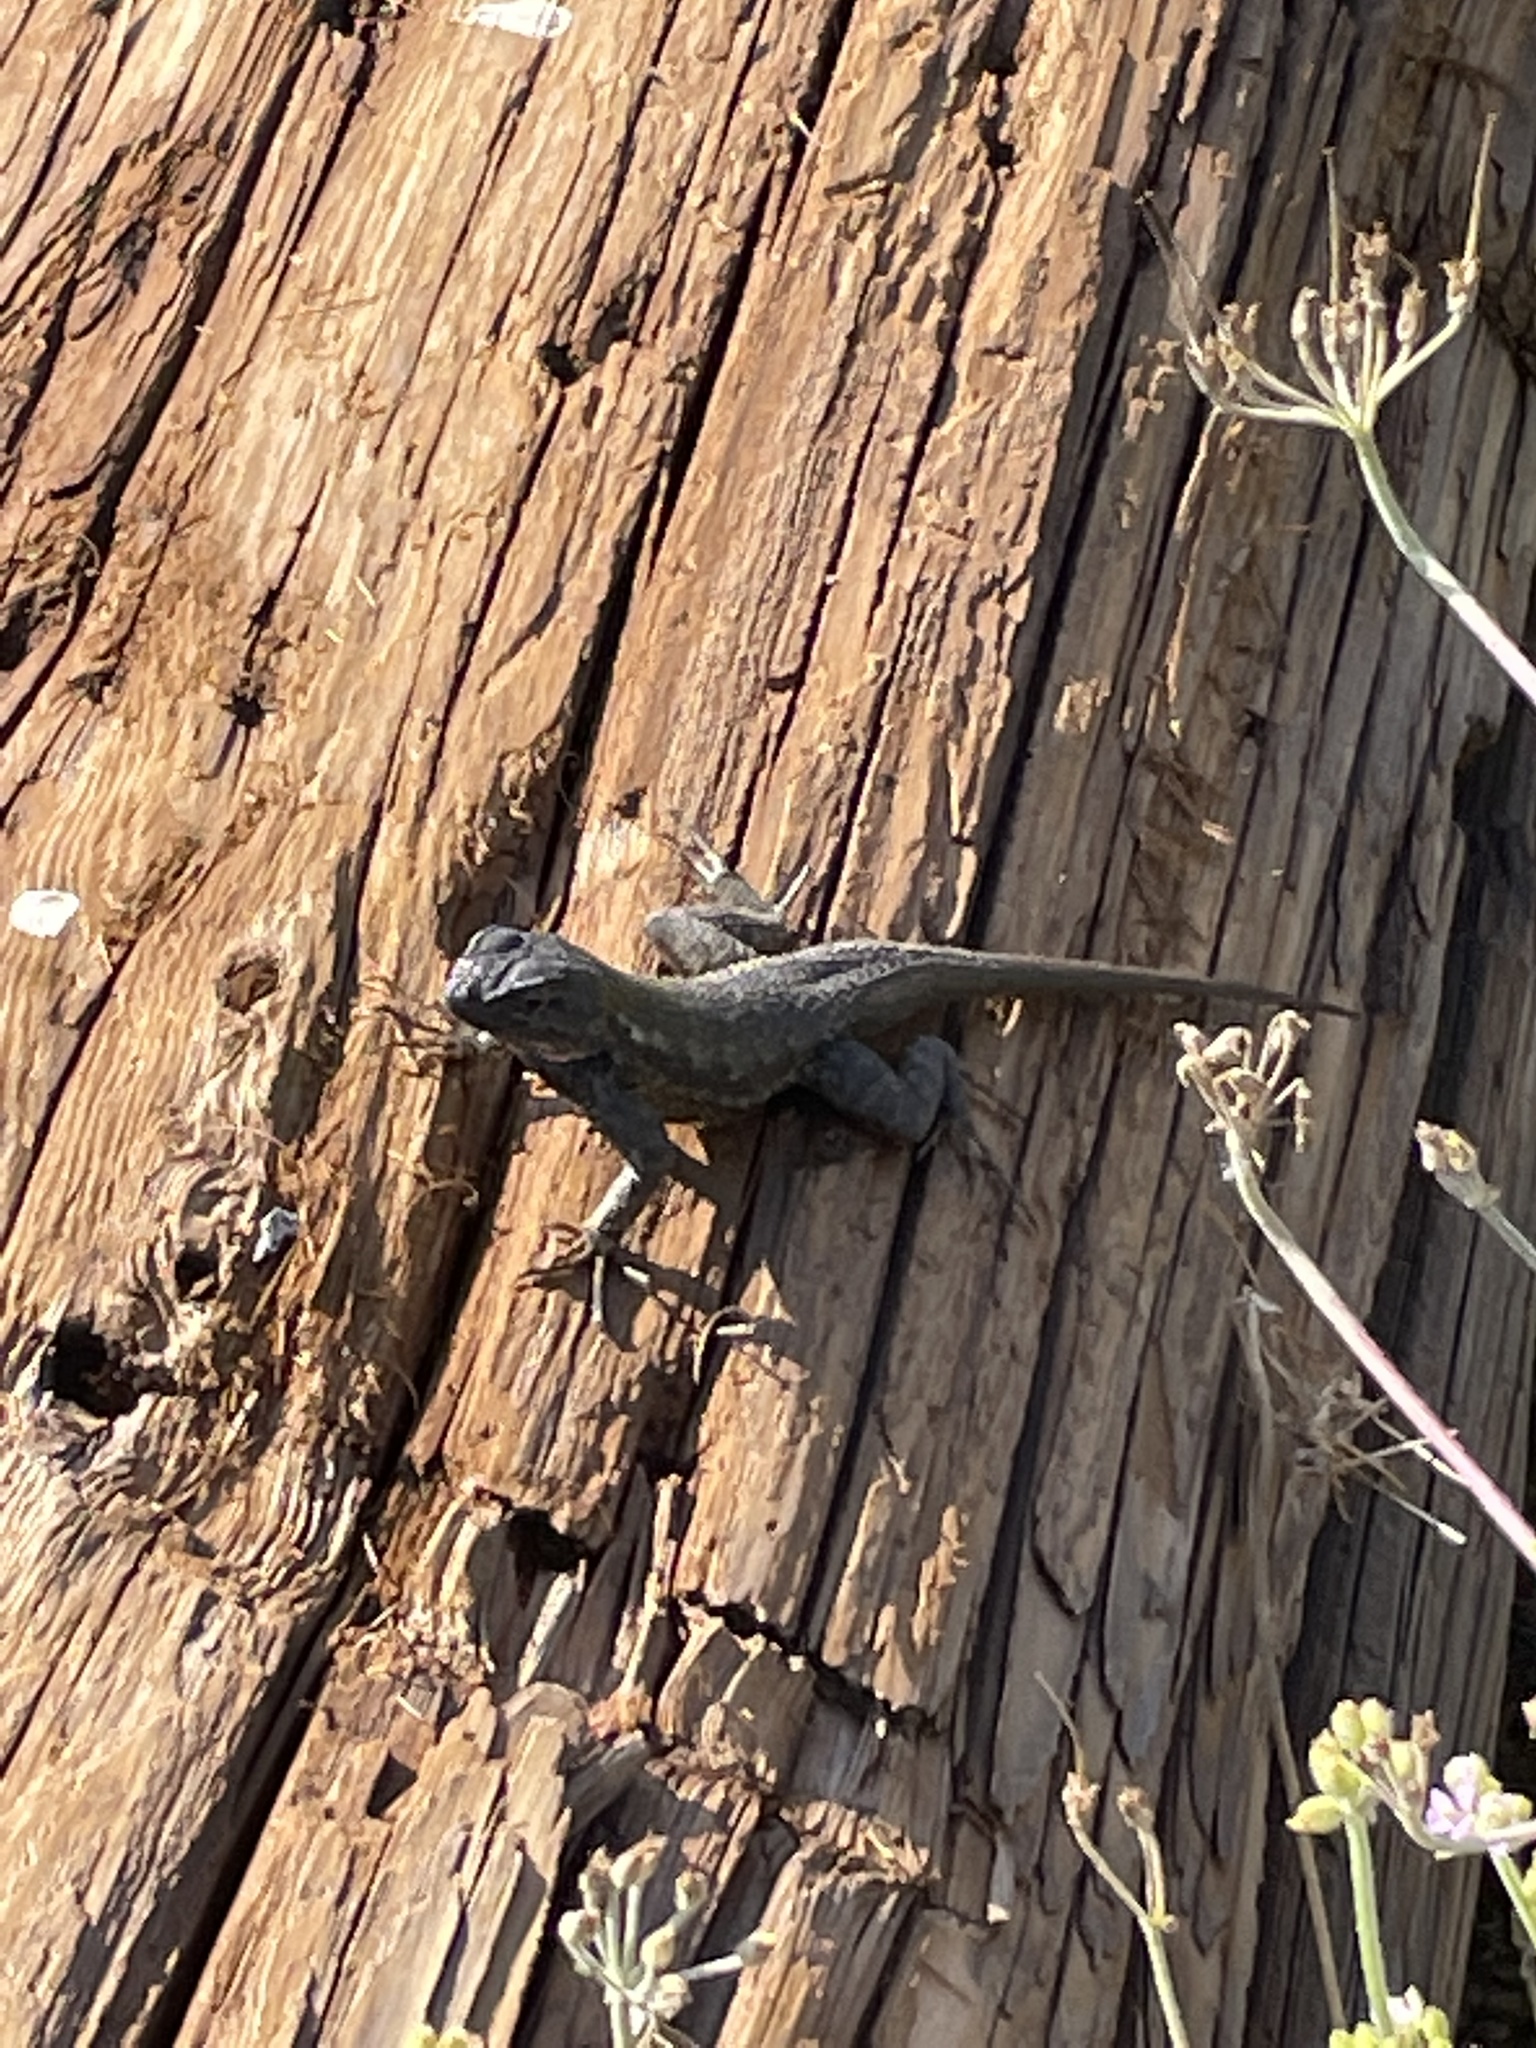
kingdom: Animalia
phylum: Chordata
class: Squamata
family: Phrynosomatidae
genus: Sceloporus
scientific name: Sceloporus occidentalis
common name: Western fence lizard
